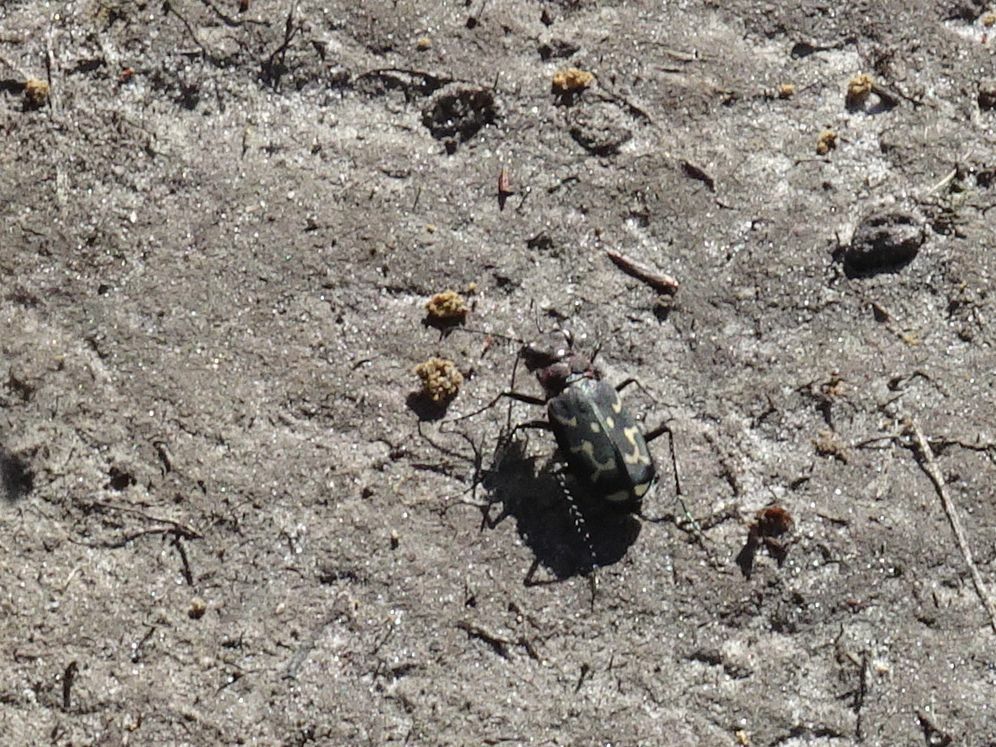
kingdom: Animalia
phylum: Arthropoda
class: Insecta
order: Coleoptera
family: Carabidae
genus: Cicindela
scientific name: Cicindela lurida
